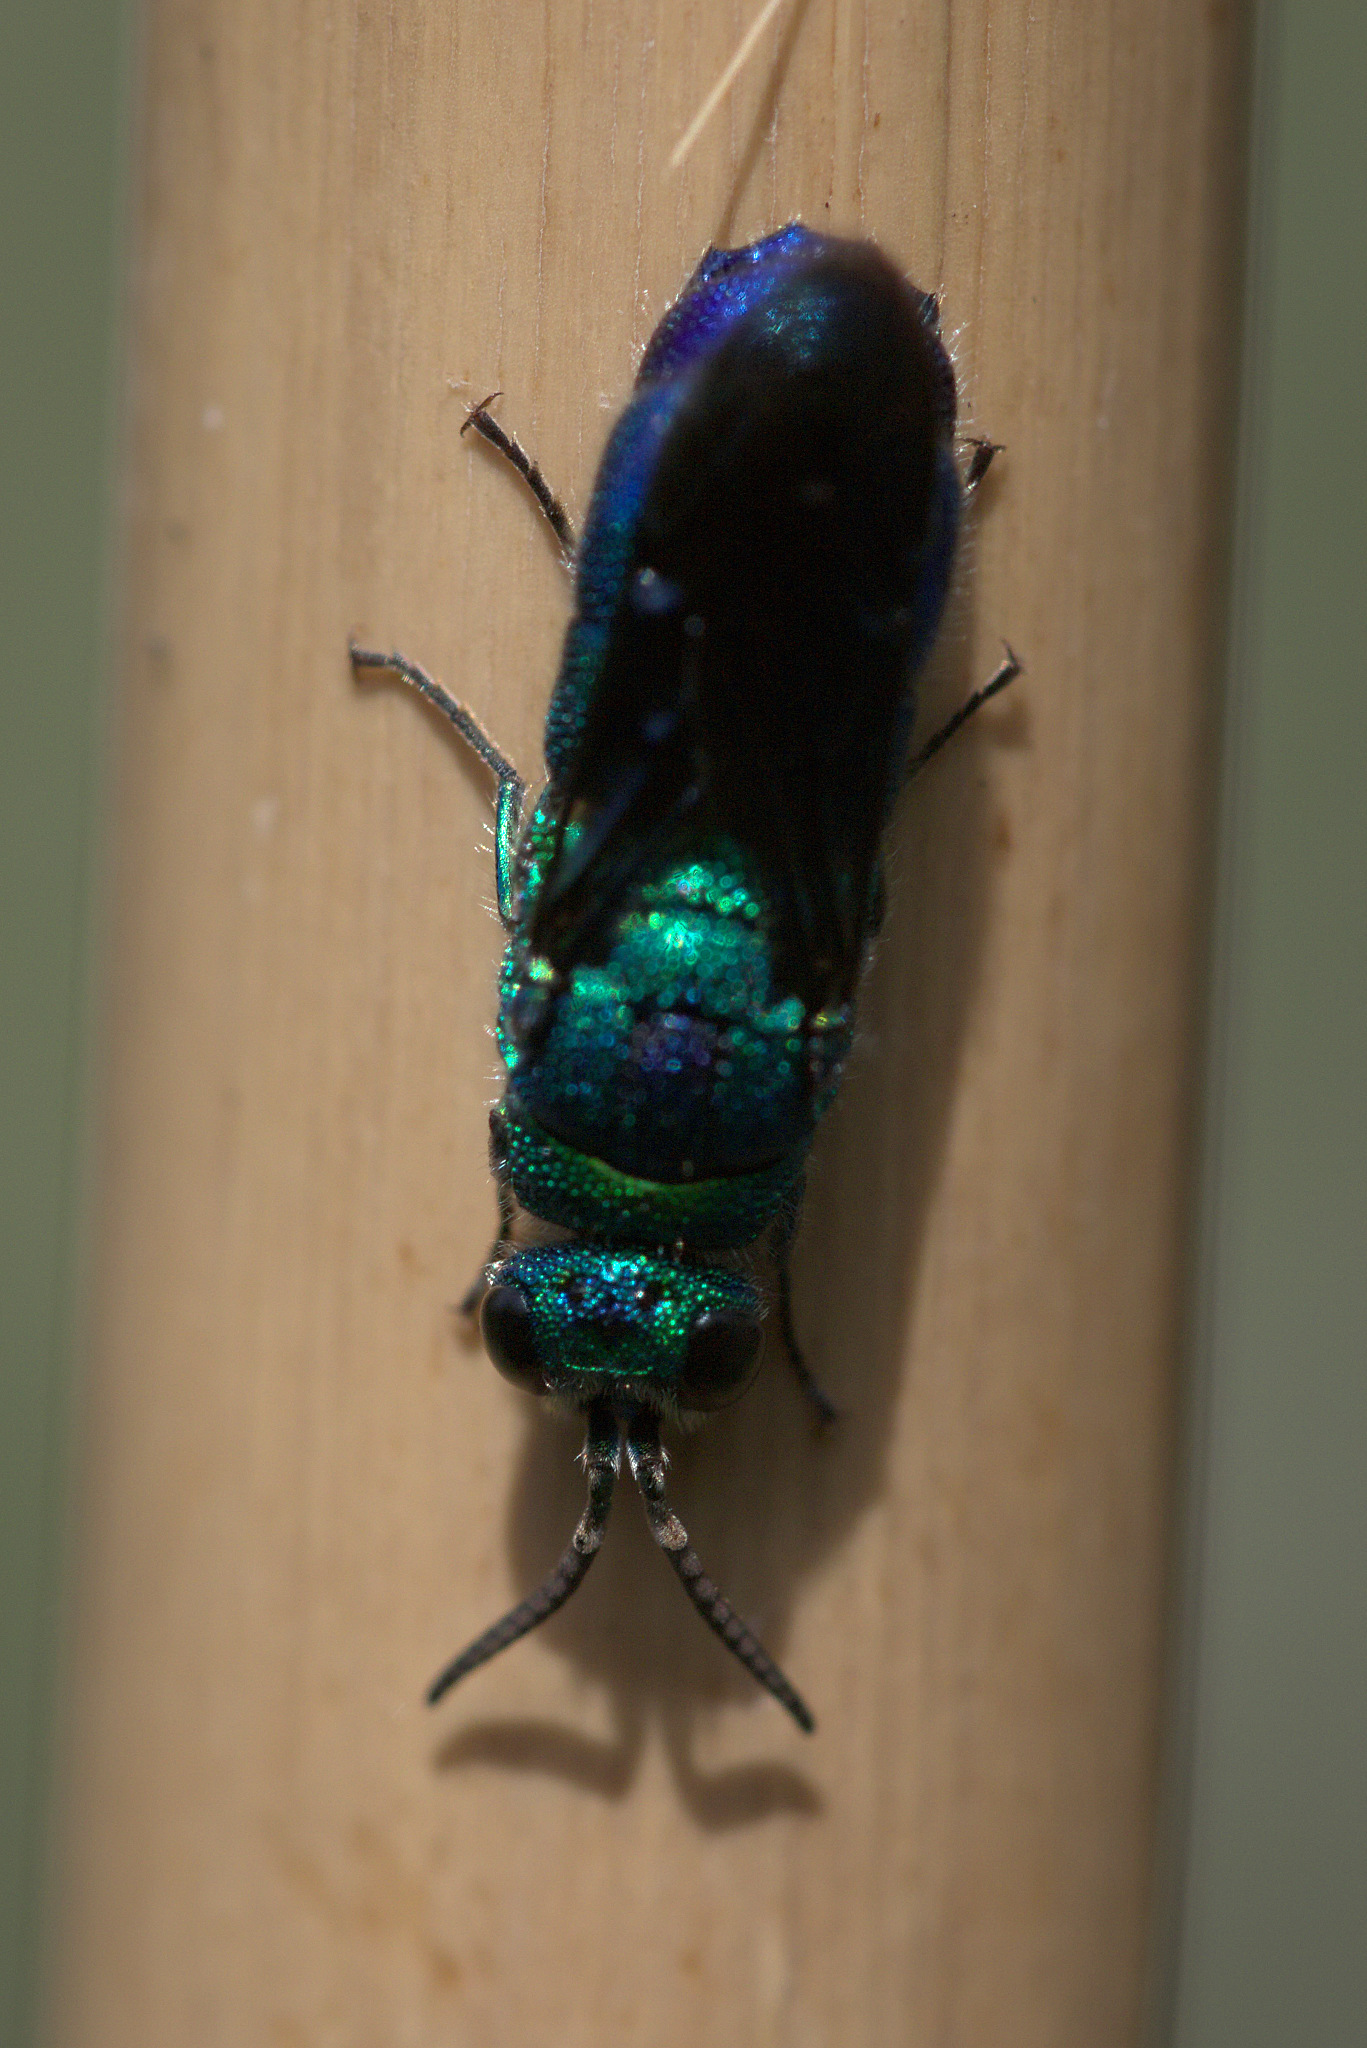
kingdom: Animalia
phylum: Arthropoda
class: Insecta
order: Hymenoptera
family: Chrysididae
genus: Chrysis
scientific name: Chrysis angolensis
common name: Cuckoo wasp
